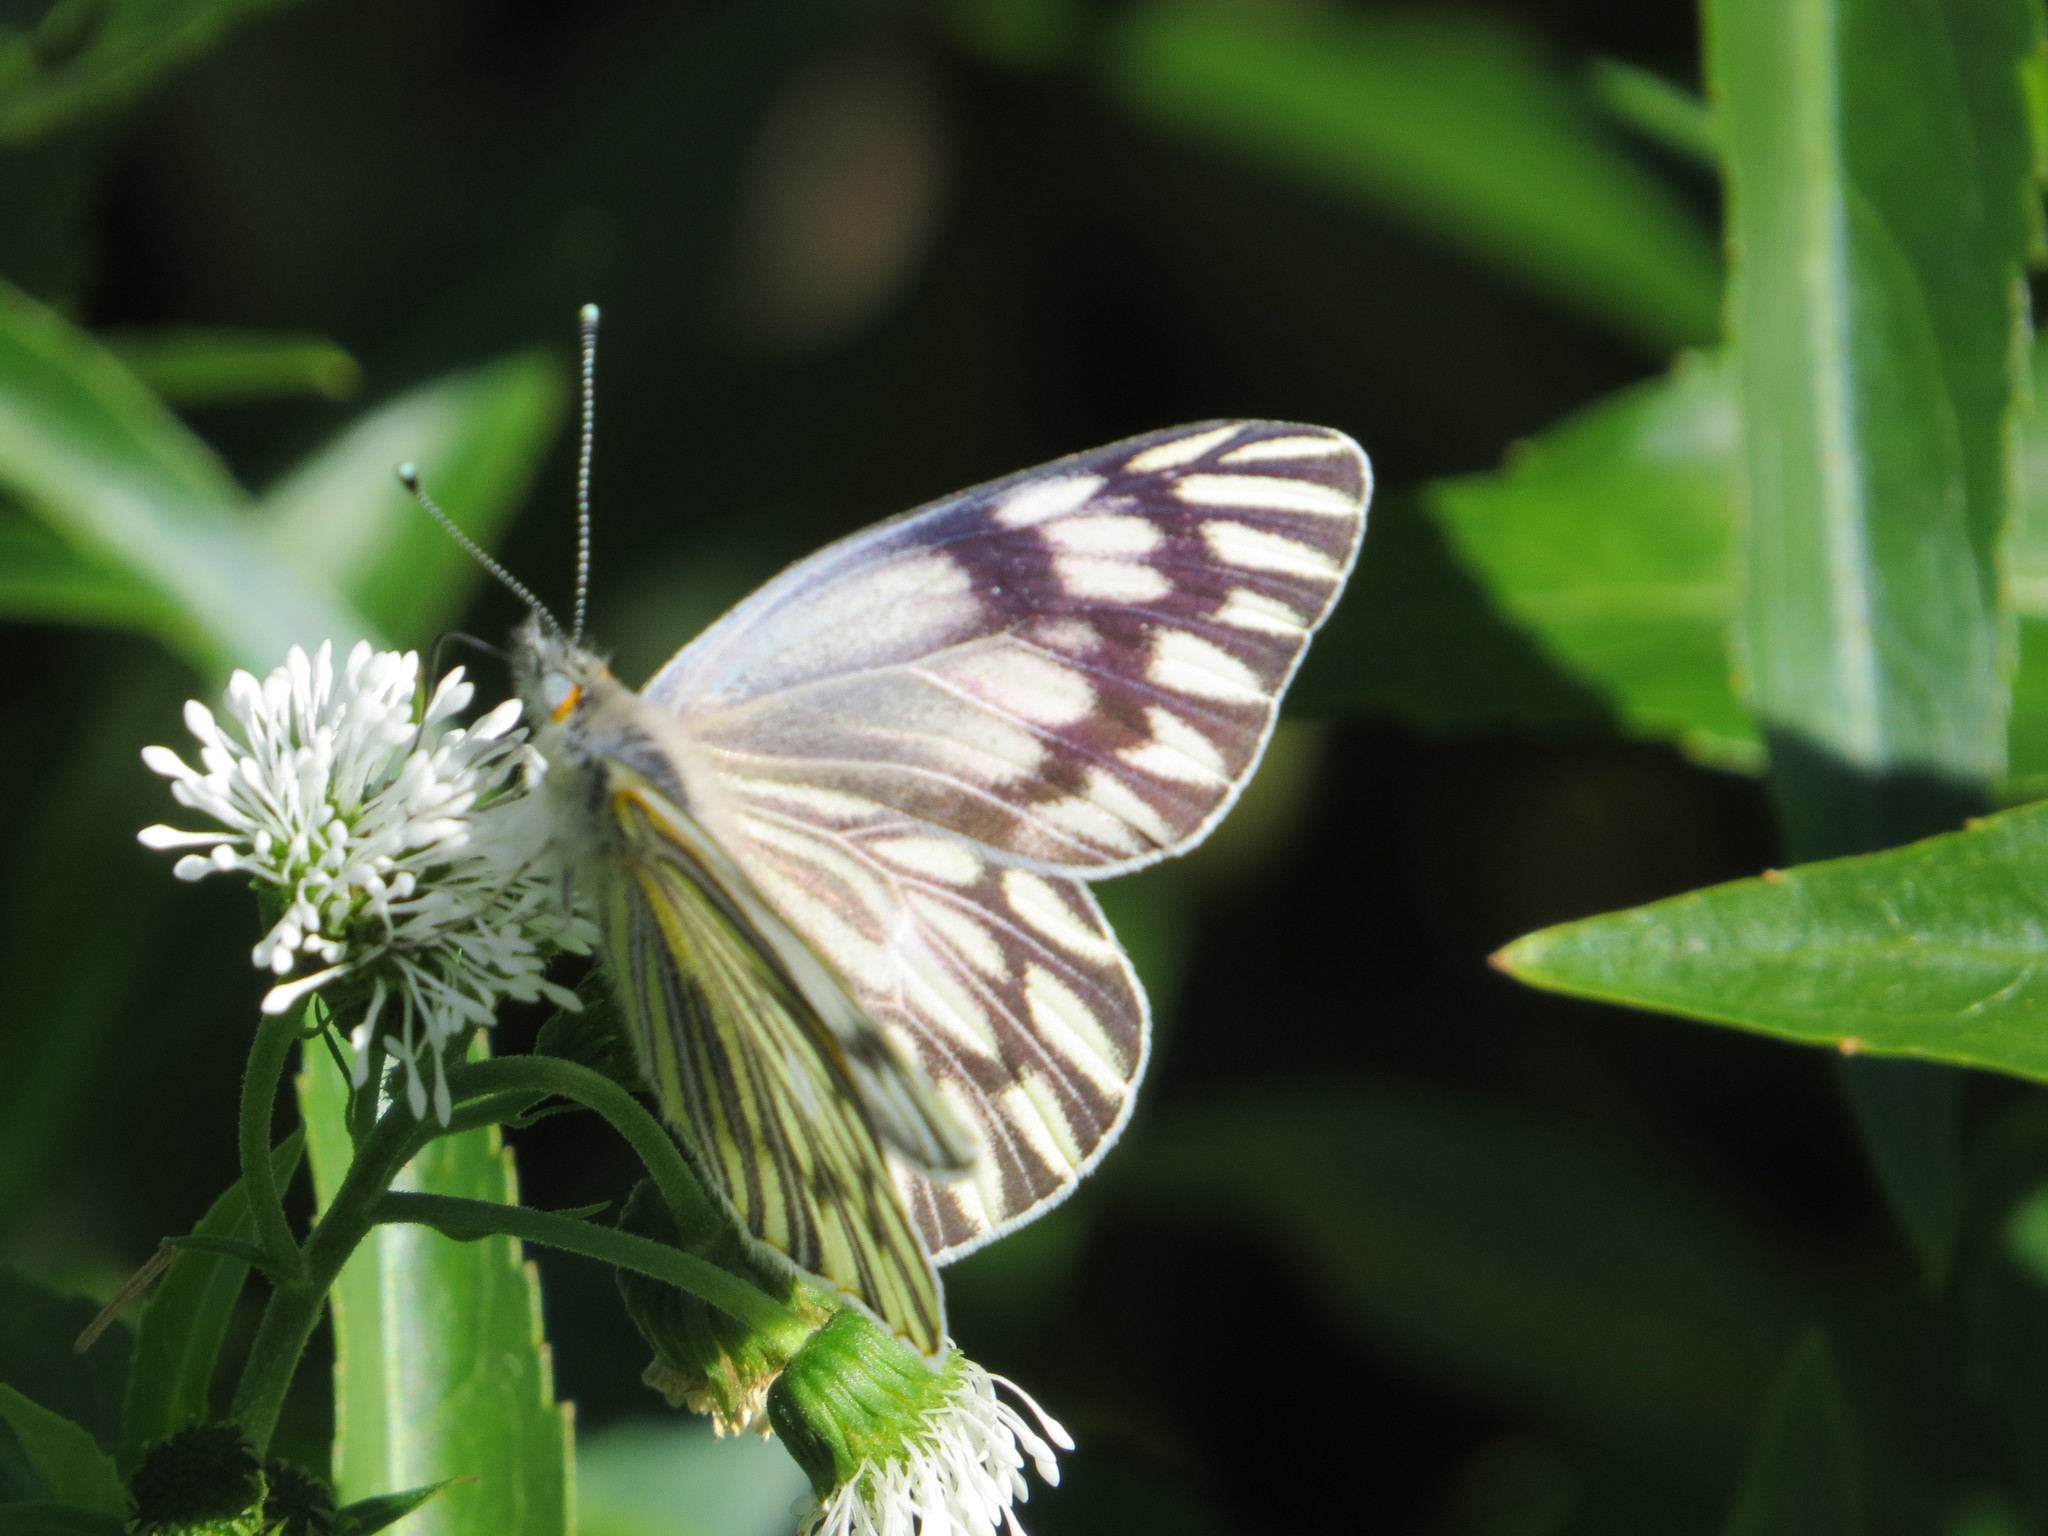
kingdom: Animalia
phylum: Arthropoda
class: Insecta
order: Lepidoptera
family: Pieridae
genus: Tatochila
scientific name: Tatochila mercedis
